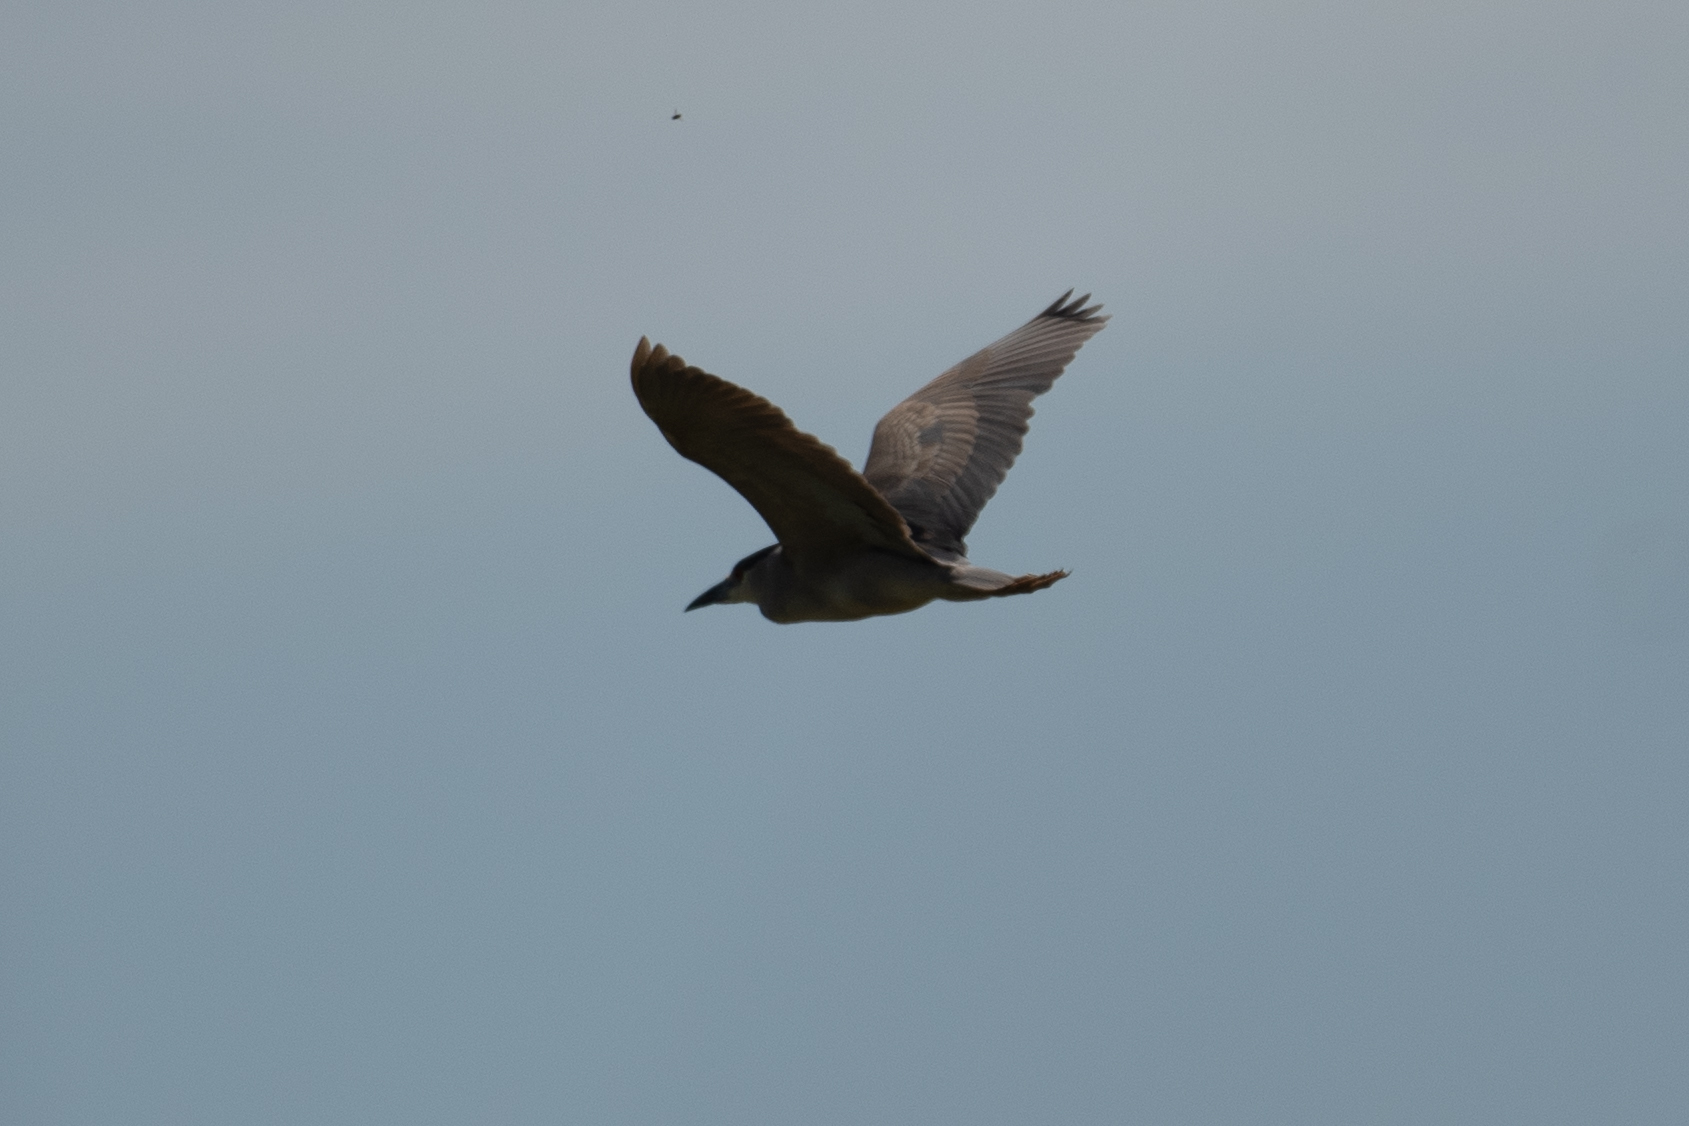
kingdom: Animalia
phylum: Chordata
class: Aves
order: Pelecaniformes
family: Ardeidae
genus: Nycticorax
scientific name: Nycticorax nycticorax
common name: Black-crowned night heron
